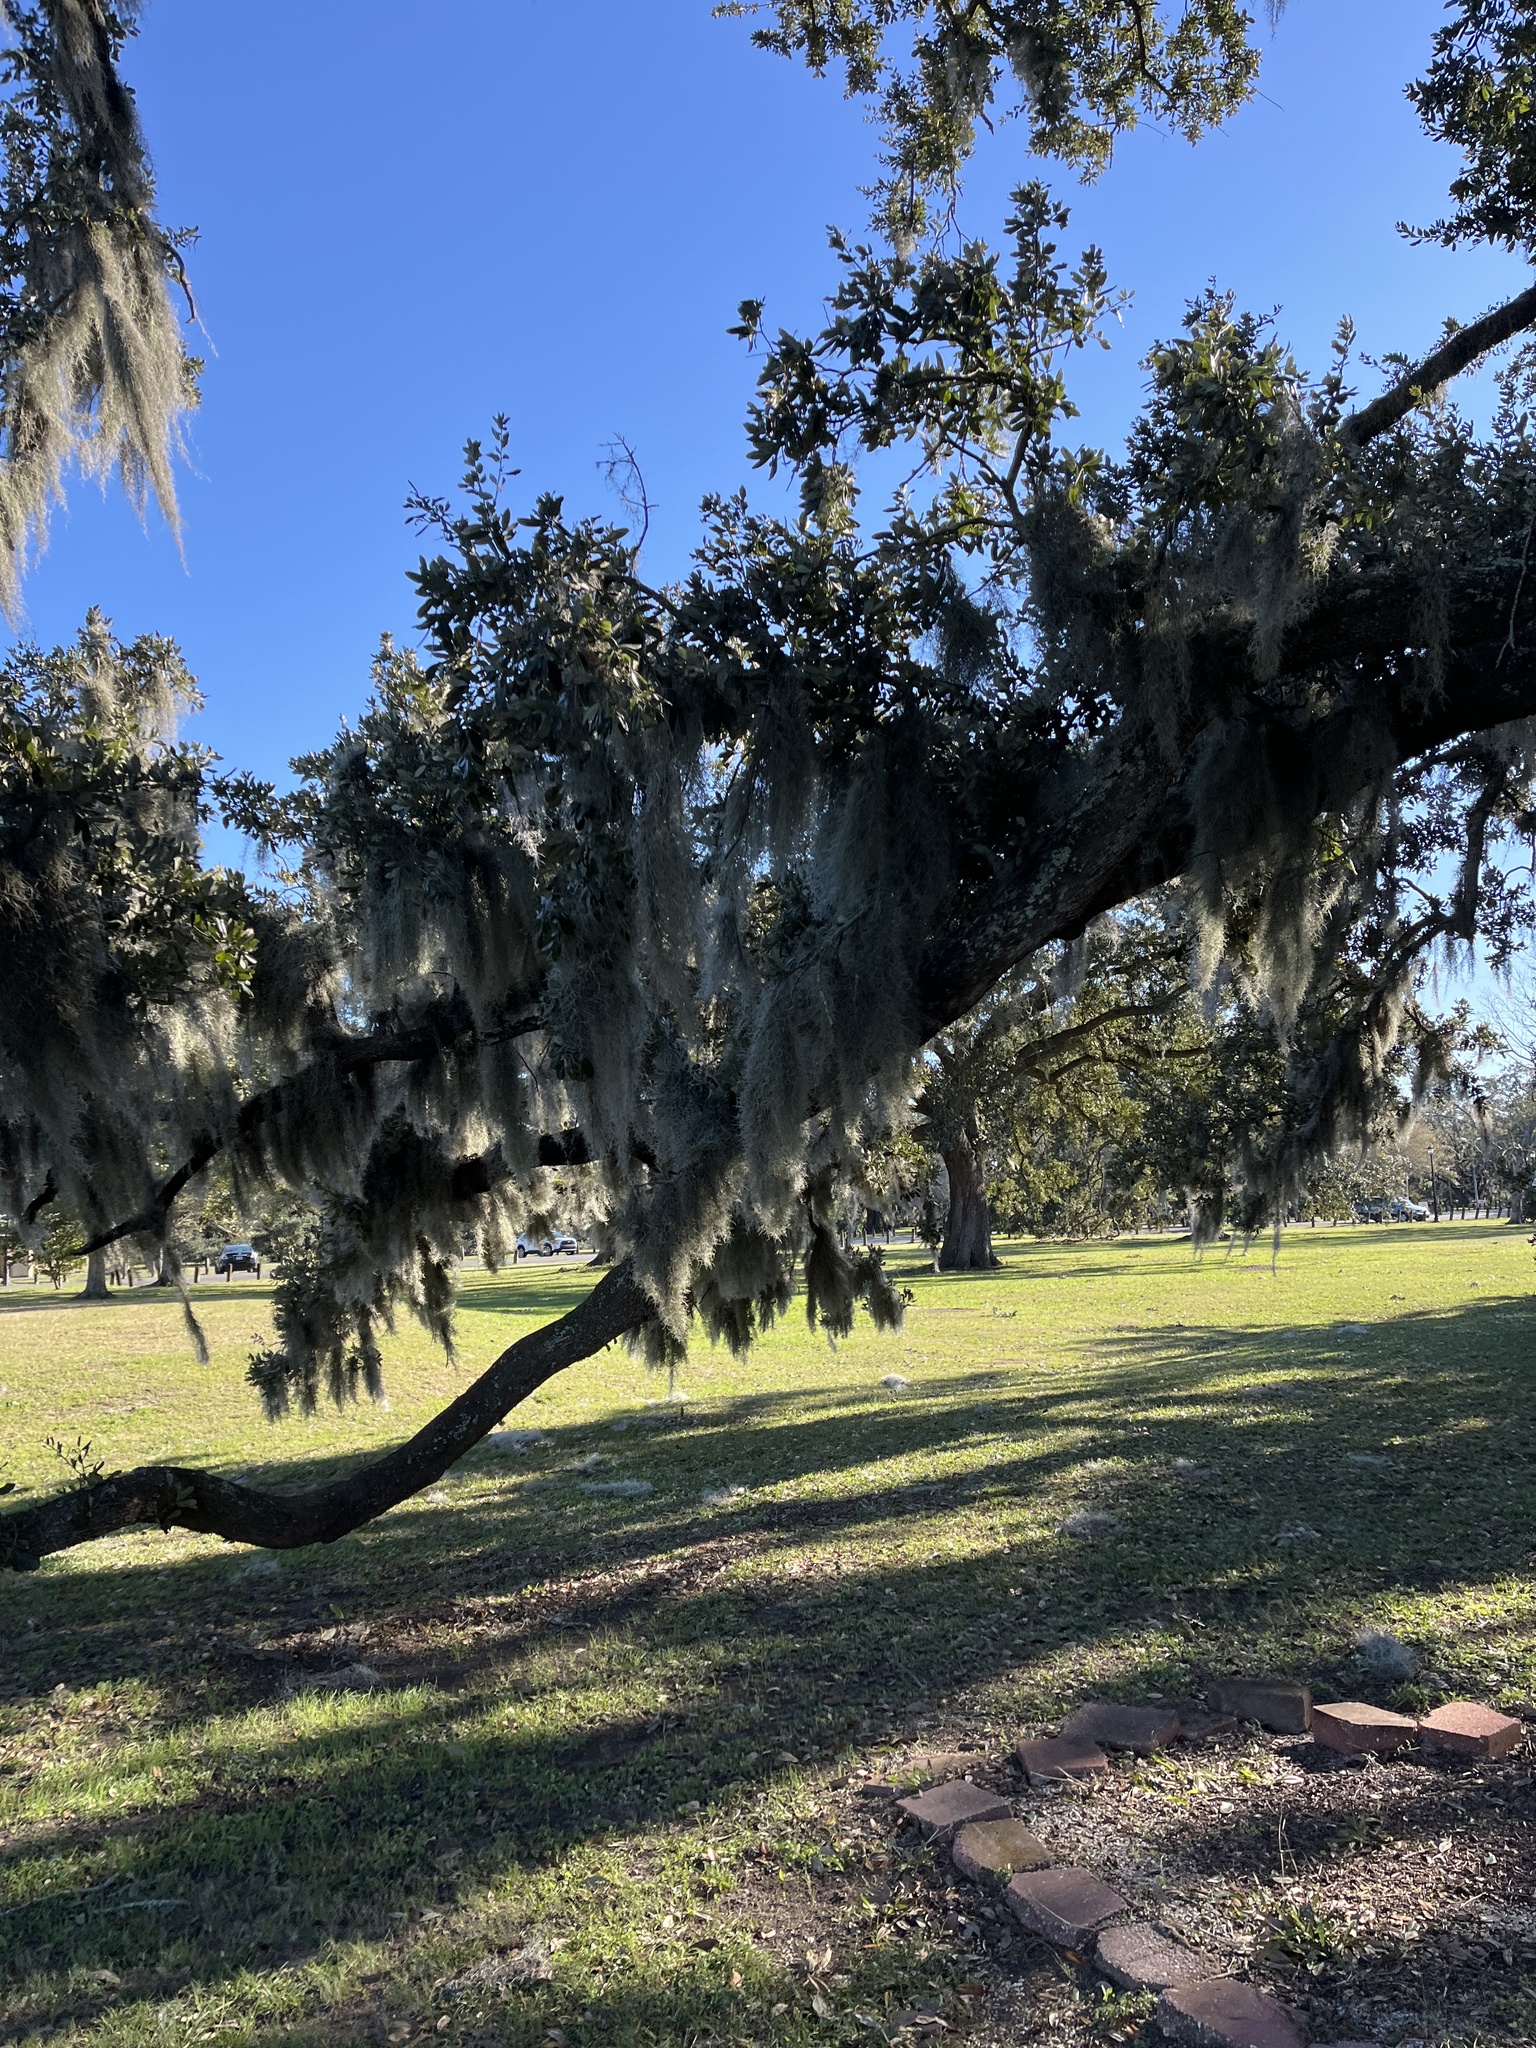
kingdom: Plantae
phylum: Tracheophyta
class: Liliopsida
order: Poales
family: Bromeliaceae
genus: Tillandsia
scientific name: Tillandsia usneoides
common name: Spanish moss
